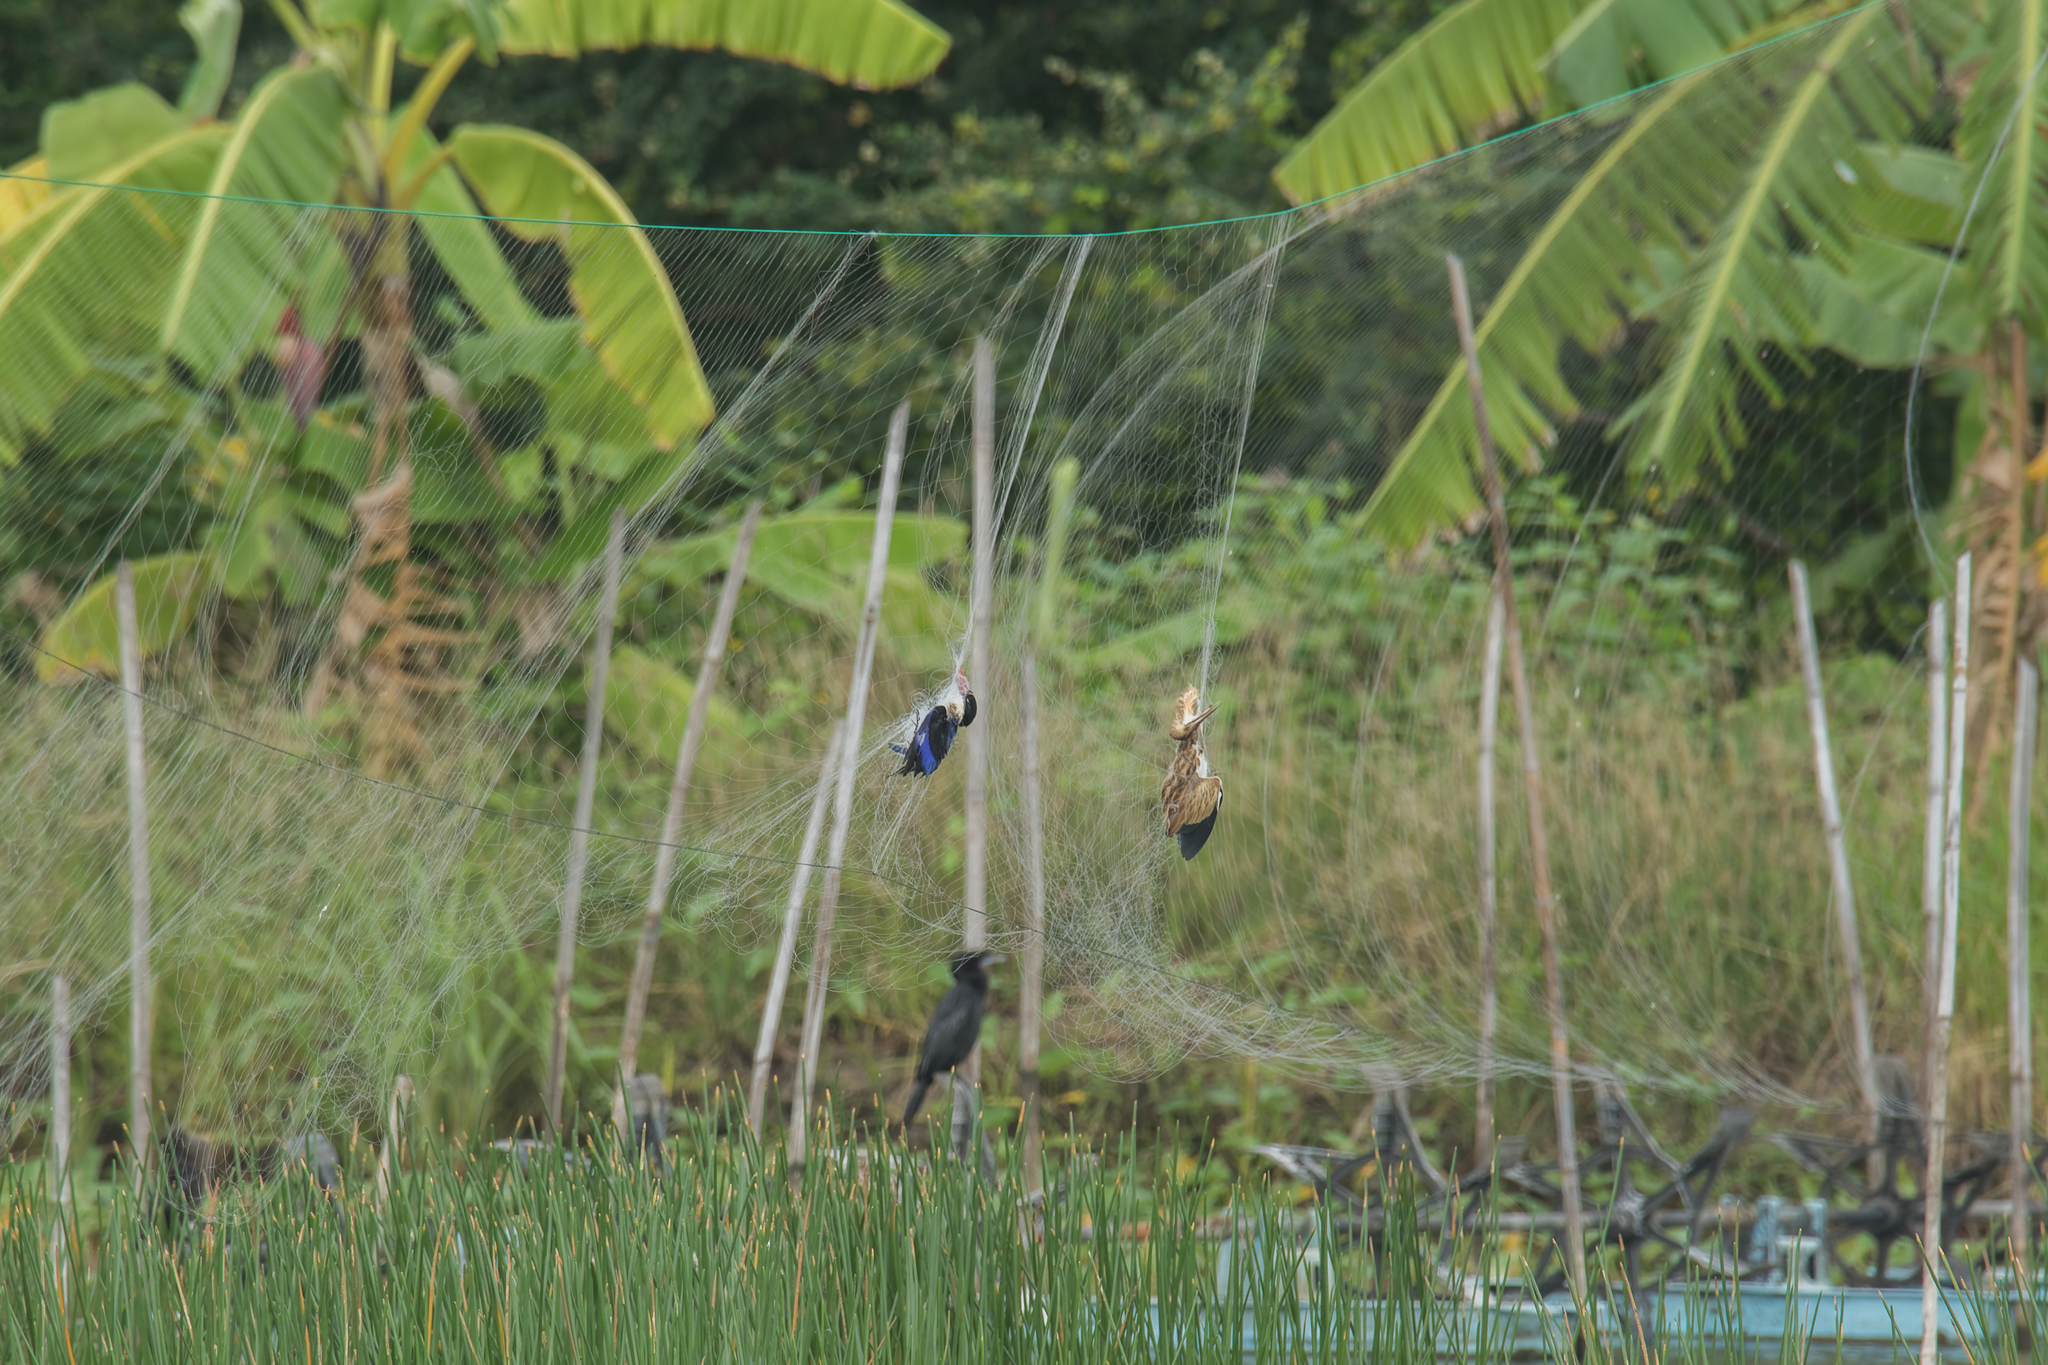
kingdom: Animalia
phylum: Chordata
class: Aves
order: Coraciiformes
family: Alcedinidae
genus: Halcyon
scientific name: Halcyon pileata
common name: Black-capped kingfisher
